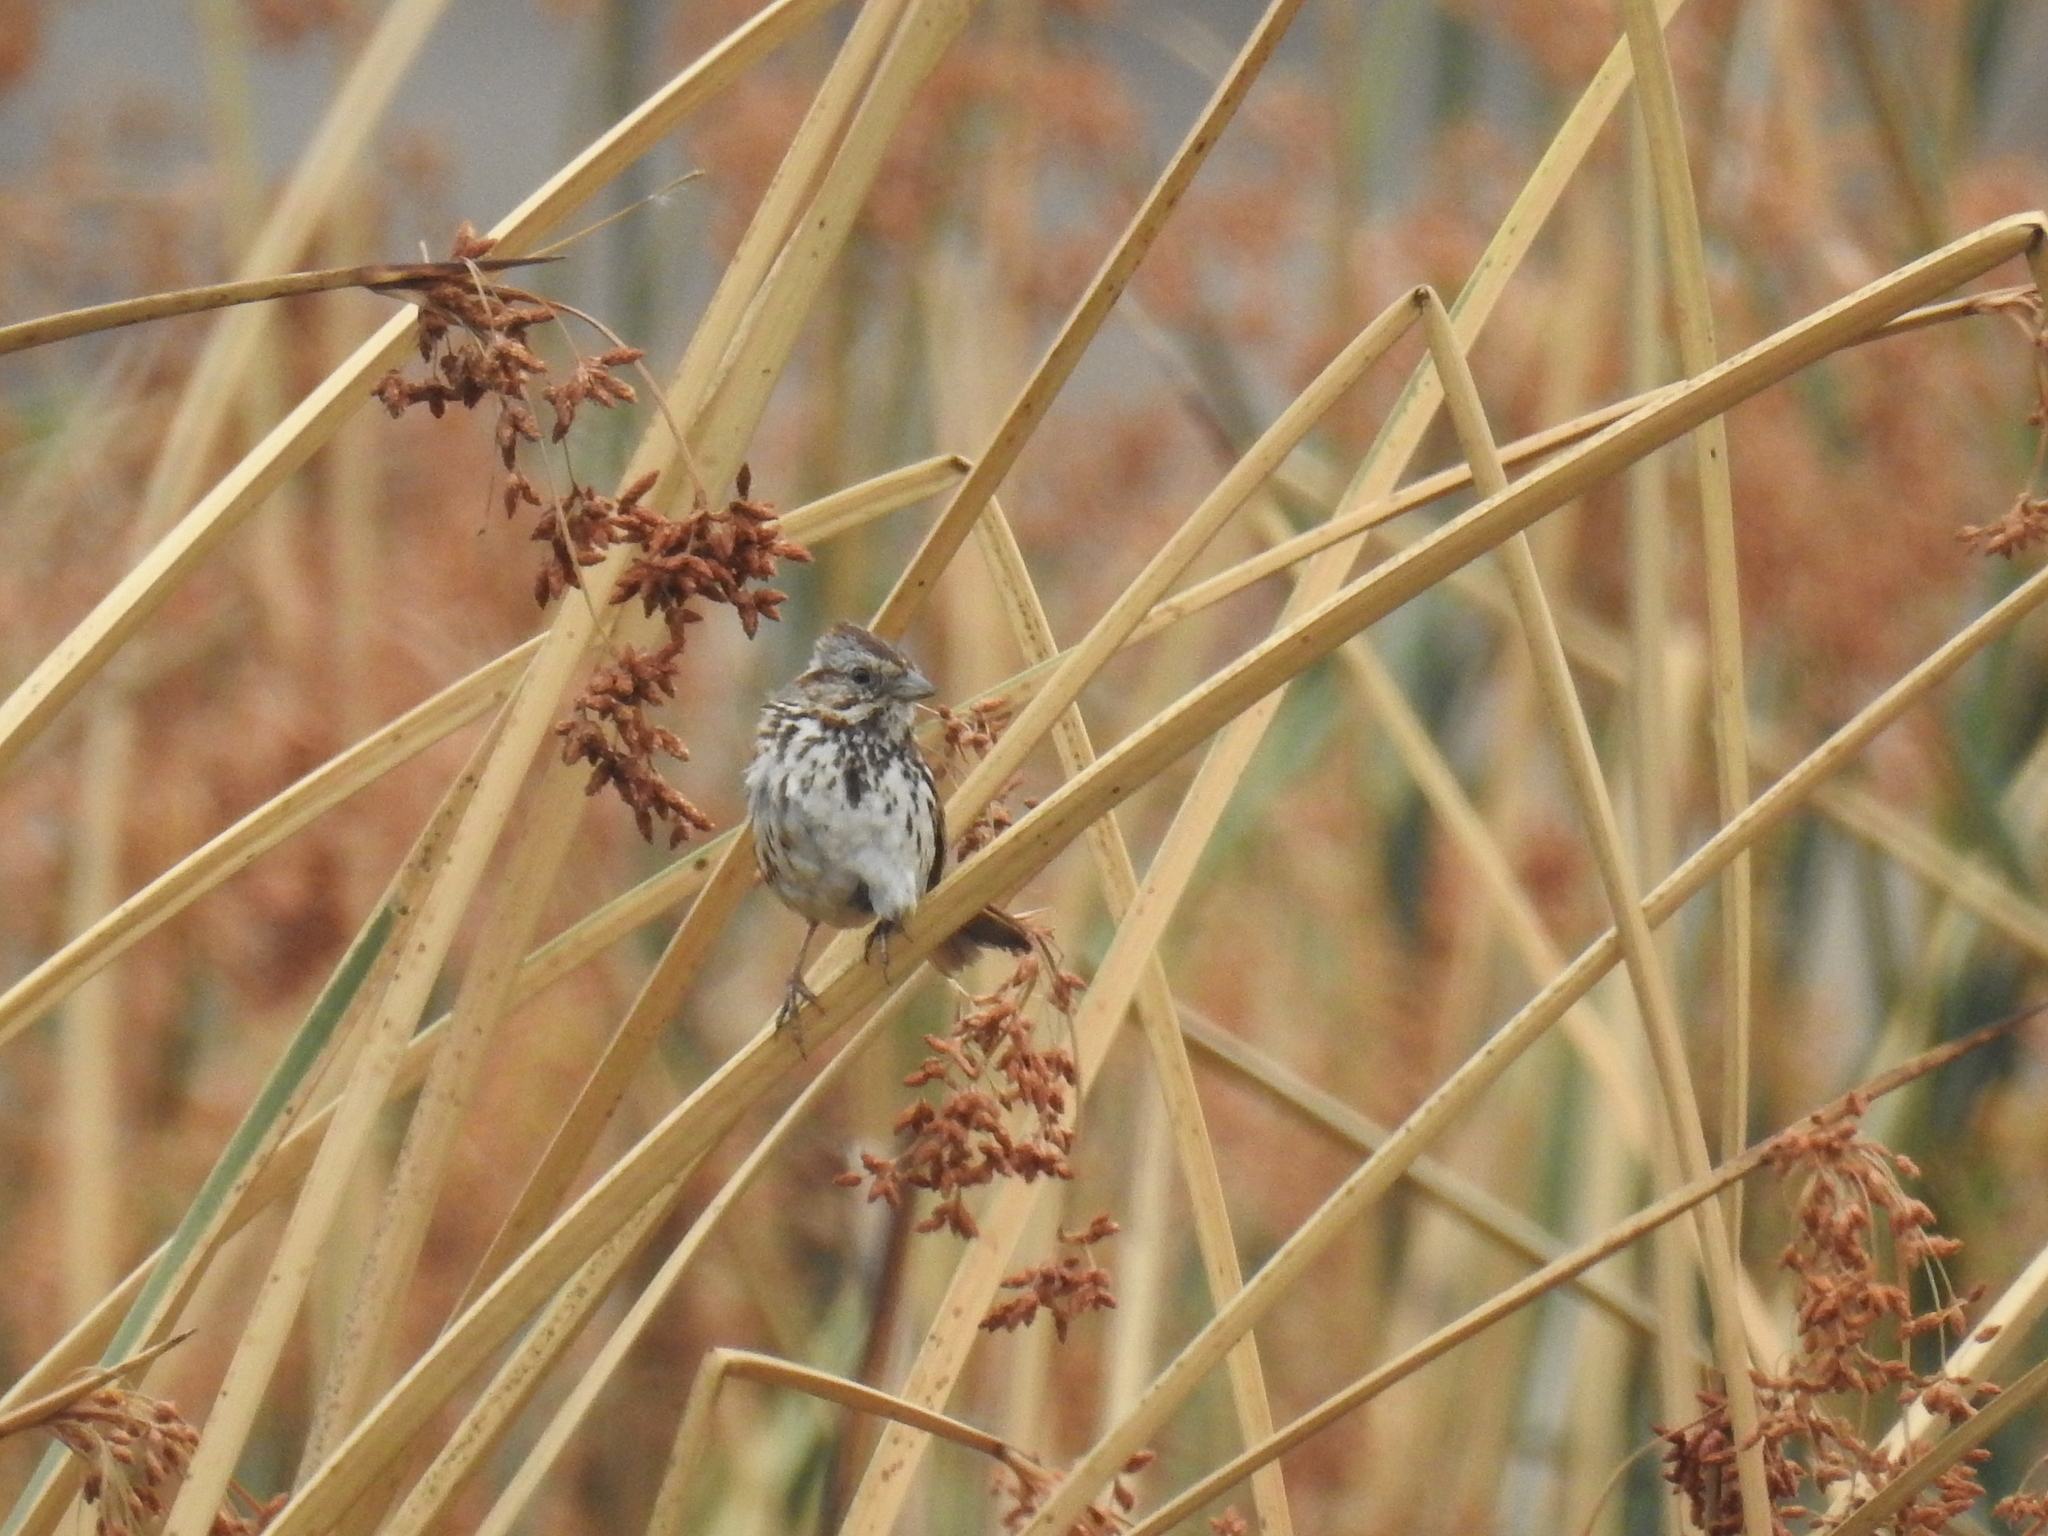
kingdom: Animalia
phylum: Chordata
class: Aves
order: Passeriformes
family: Passerellidae
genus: Melospiza
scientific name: Melospiza melodia
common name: Song sparrow
